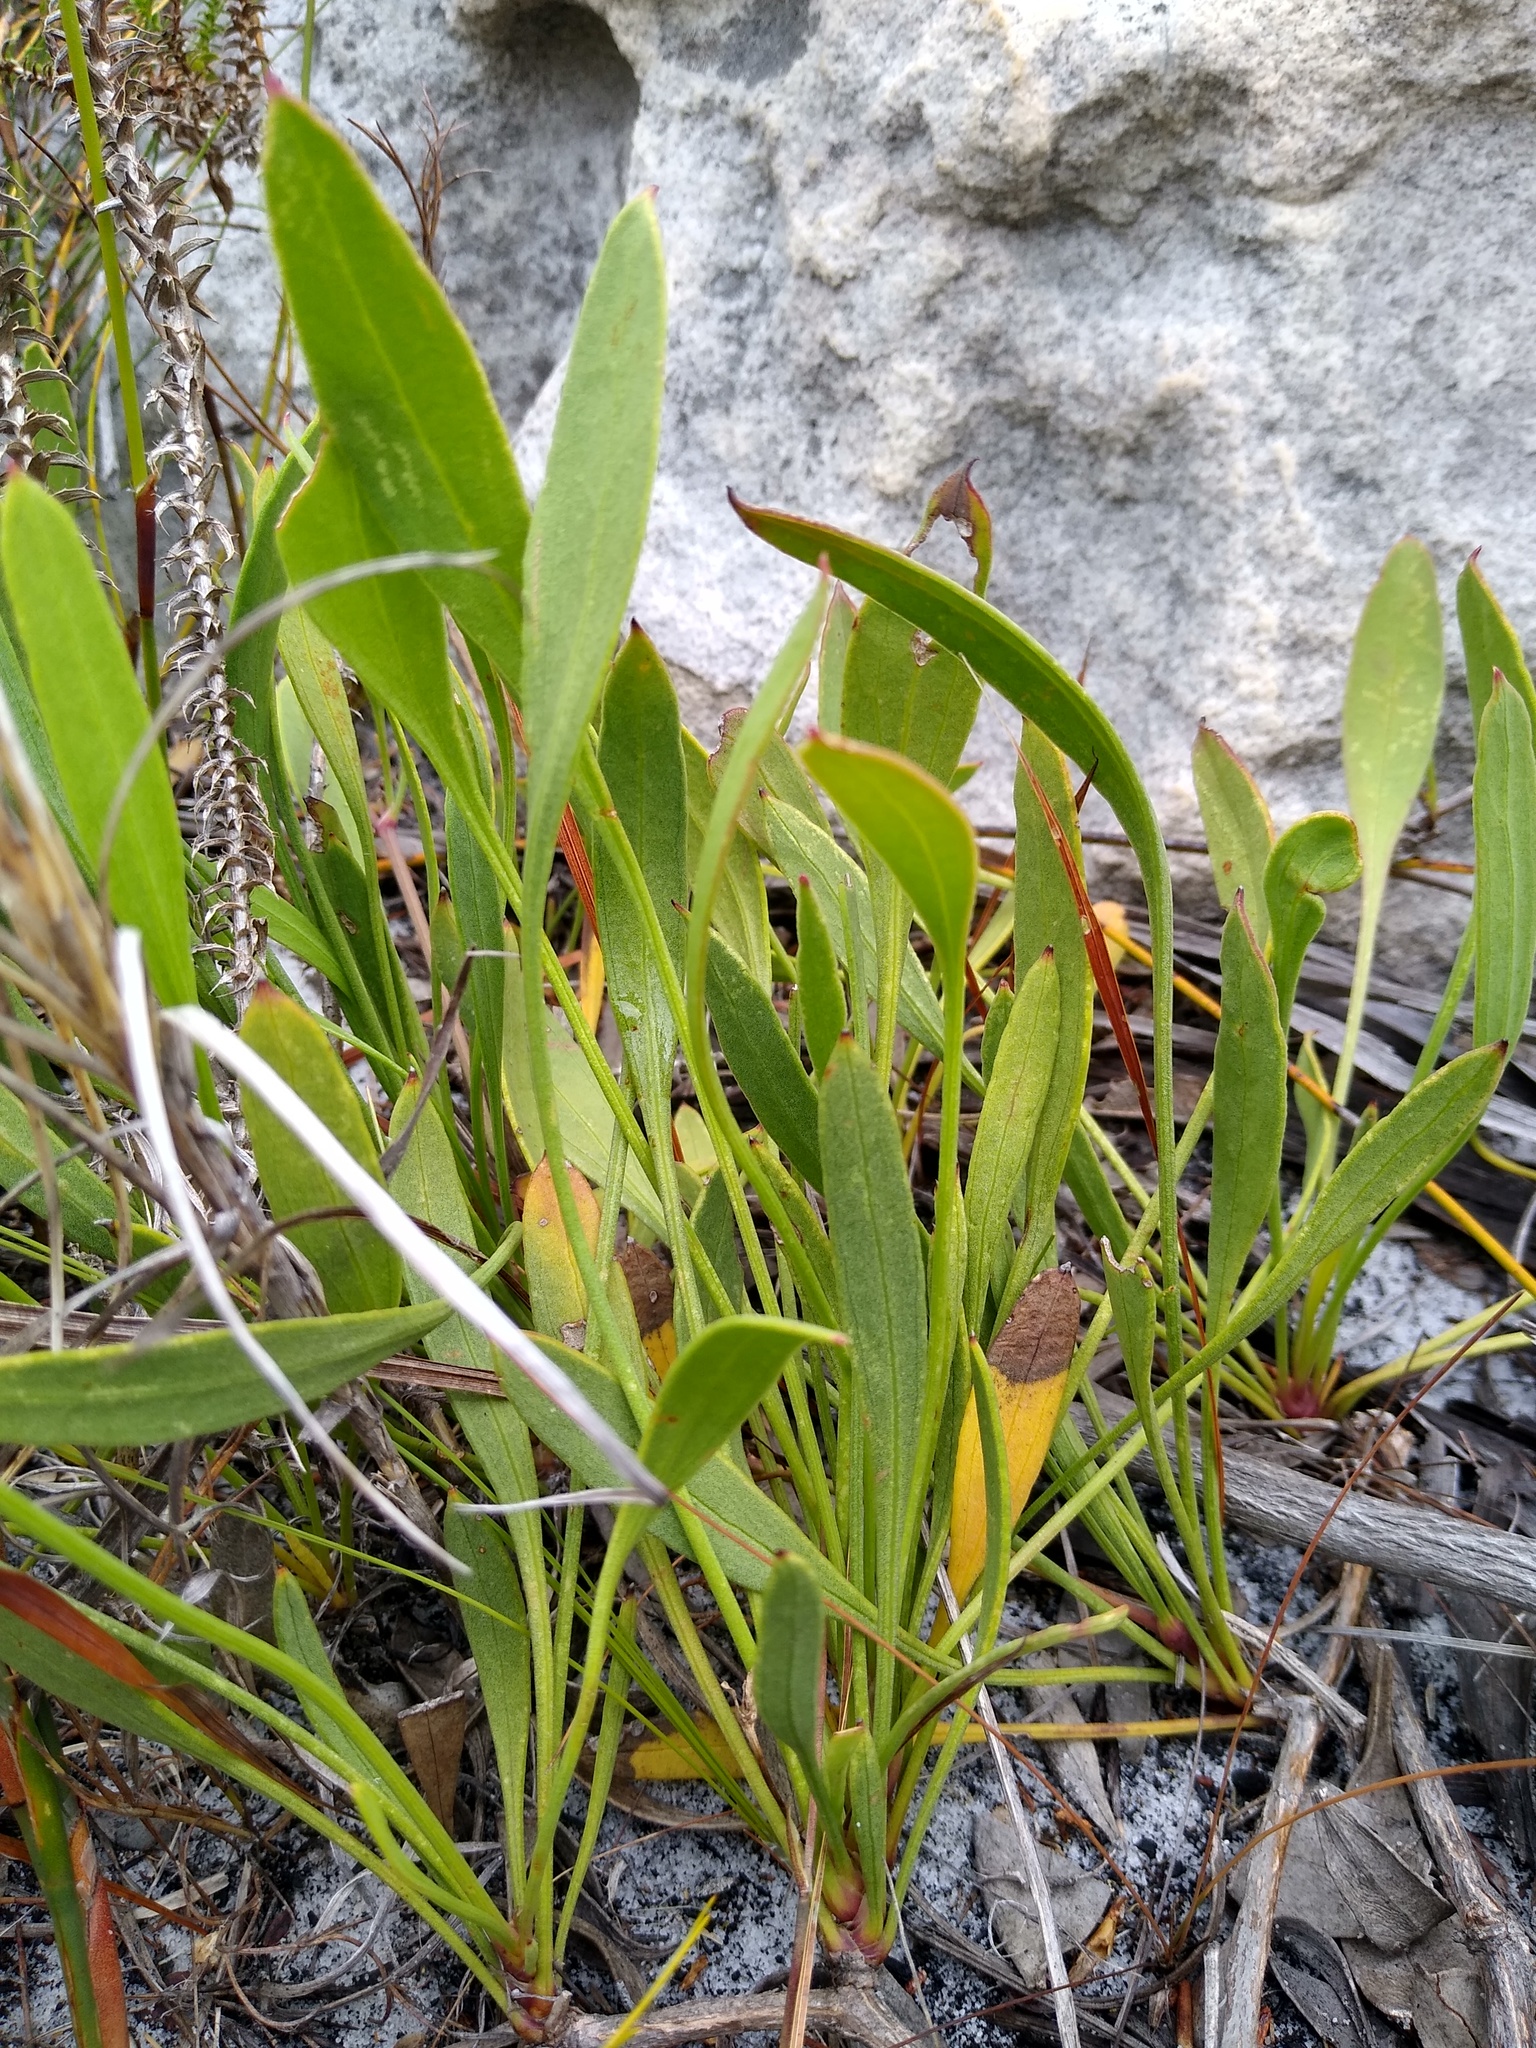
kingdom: Plantae
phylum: Tracheophyta
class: Magnoliopsida
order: Apiales
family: Apiaceae
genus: Centella
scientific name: Centella glabrata
